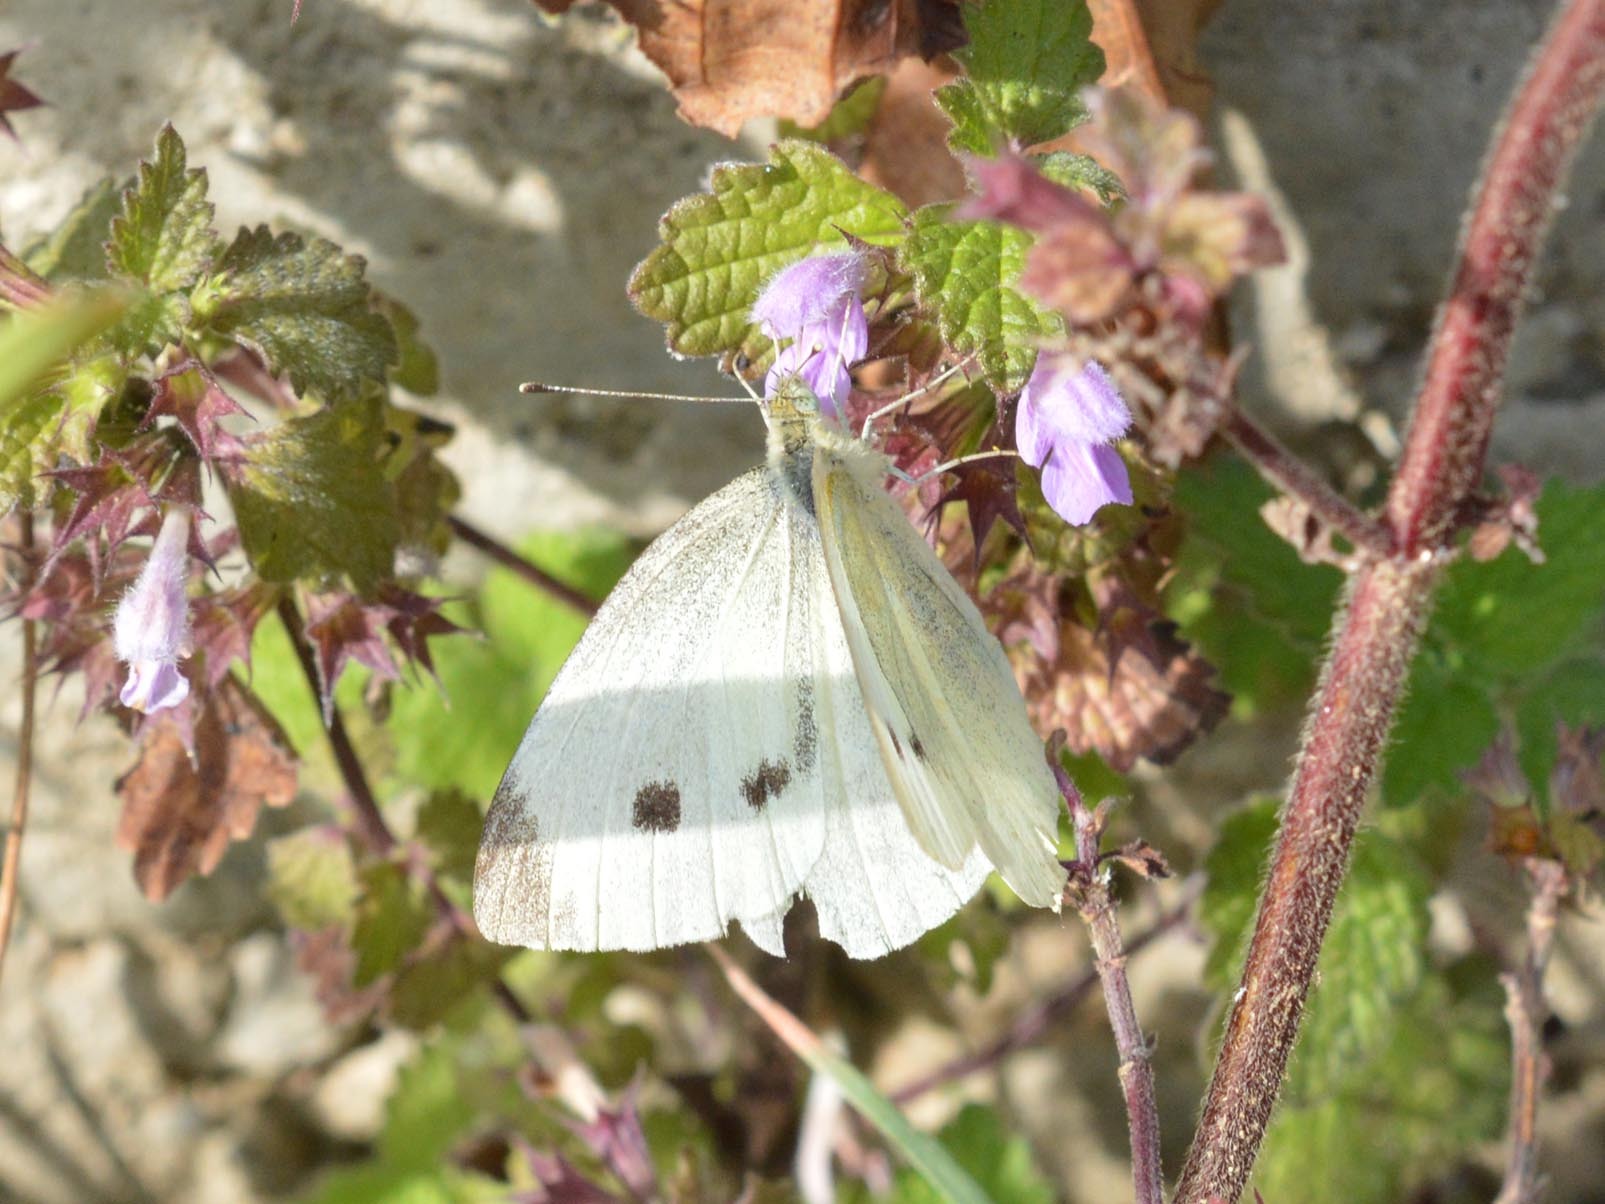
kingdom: Animalia
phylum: Arthropoda
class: Insecta
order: Lepidoptera
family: Pieridae
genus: Pieris
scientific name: Pieris rapae
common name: Small white
